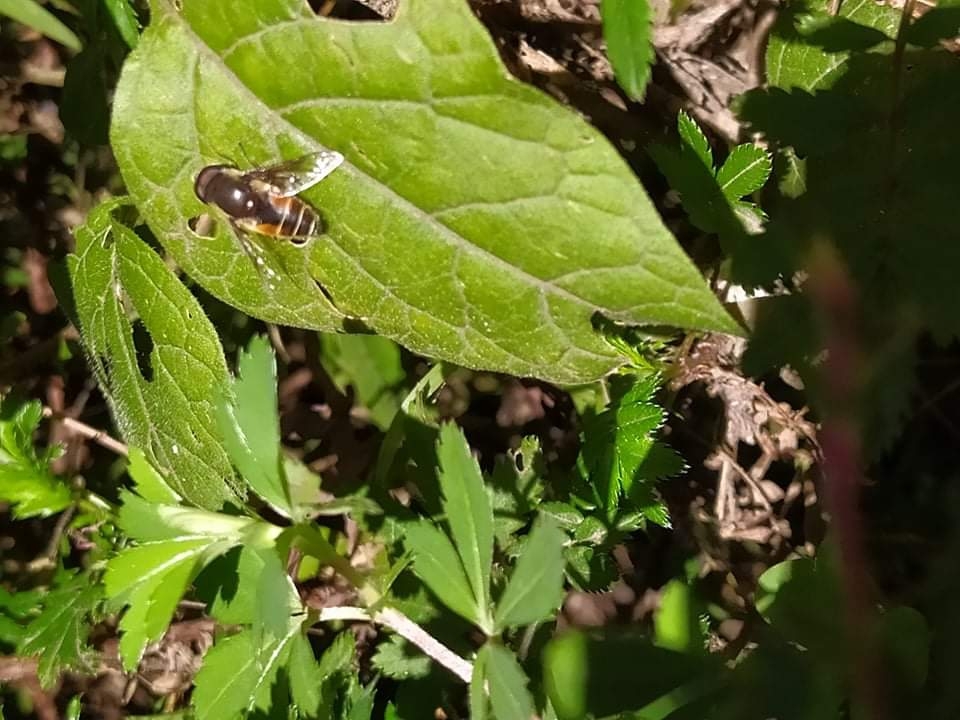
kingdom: Animalia
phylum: Arthropoda
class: Insecta
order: Diptera
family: Syrphidae
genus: Eristalis
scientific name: Eristalis bellardii
